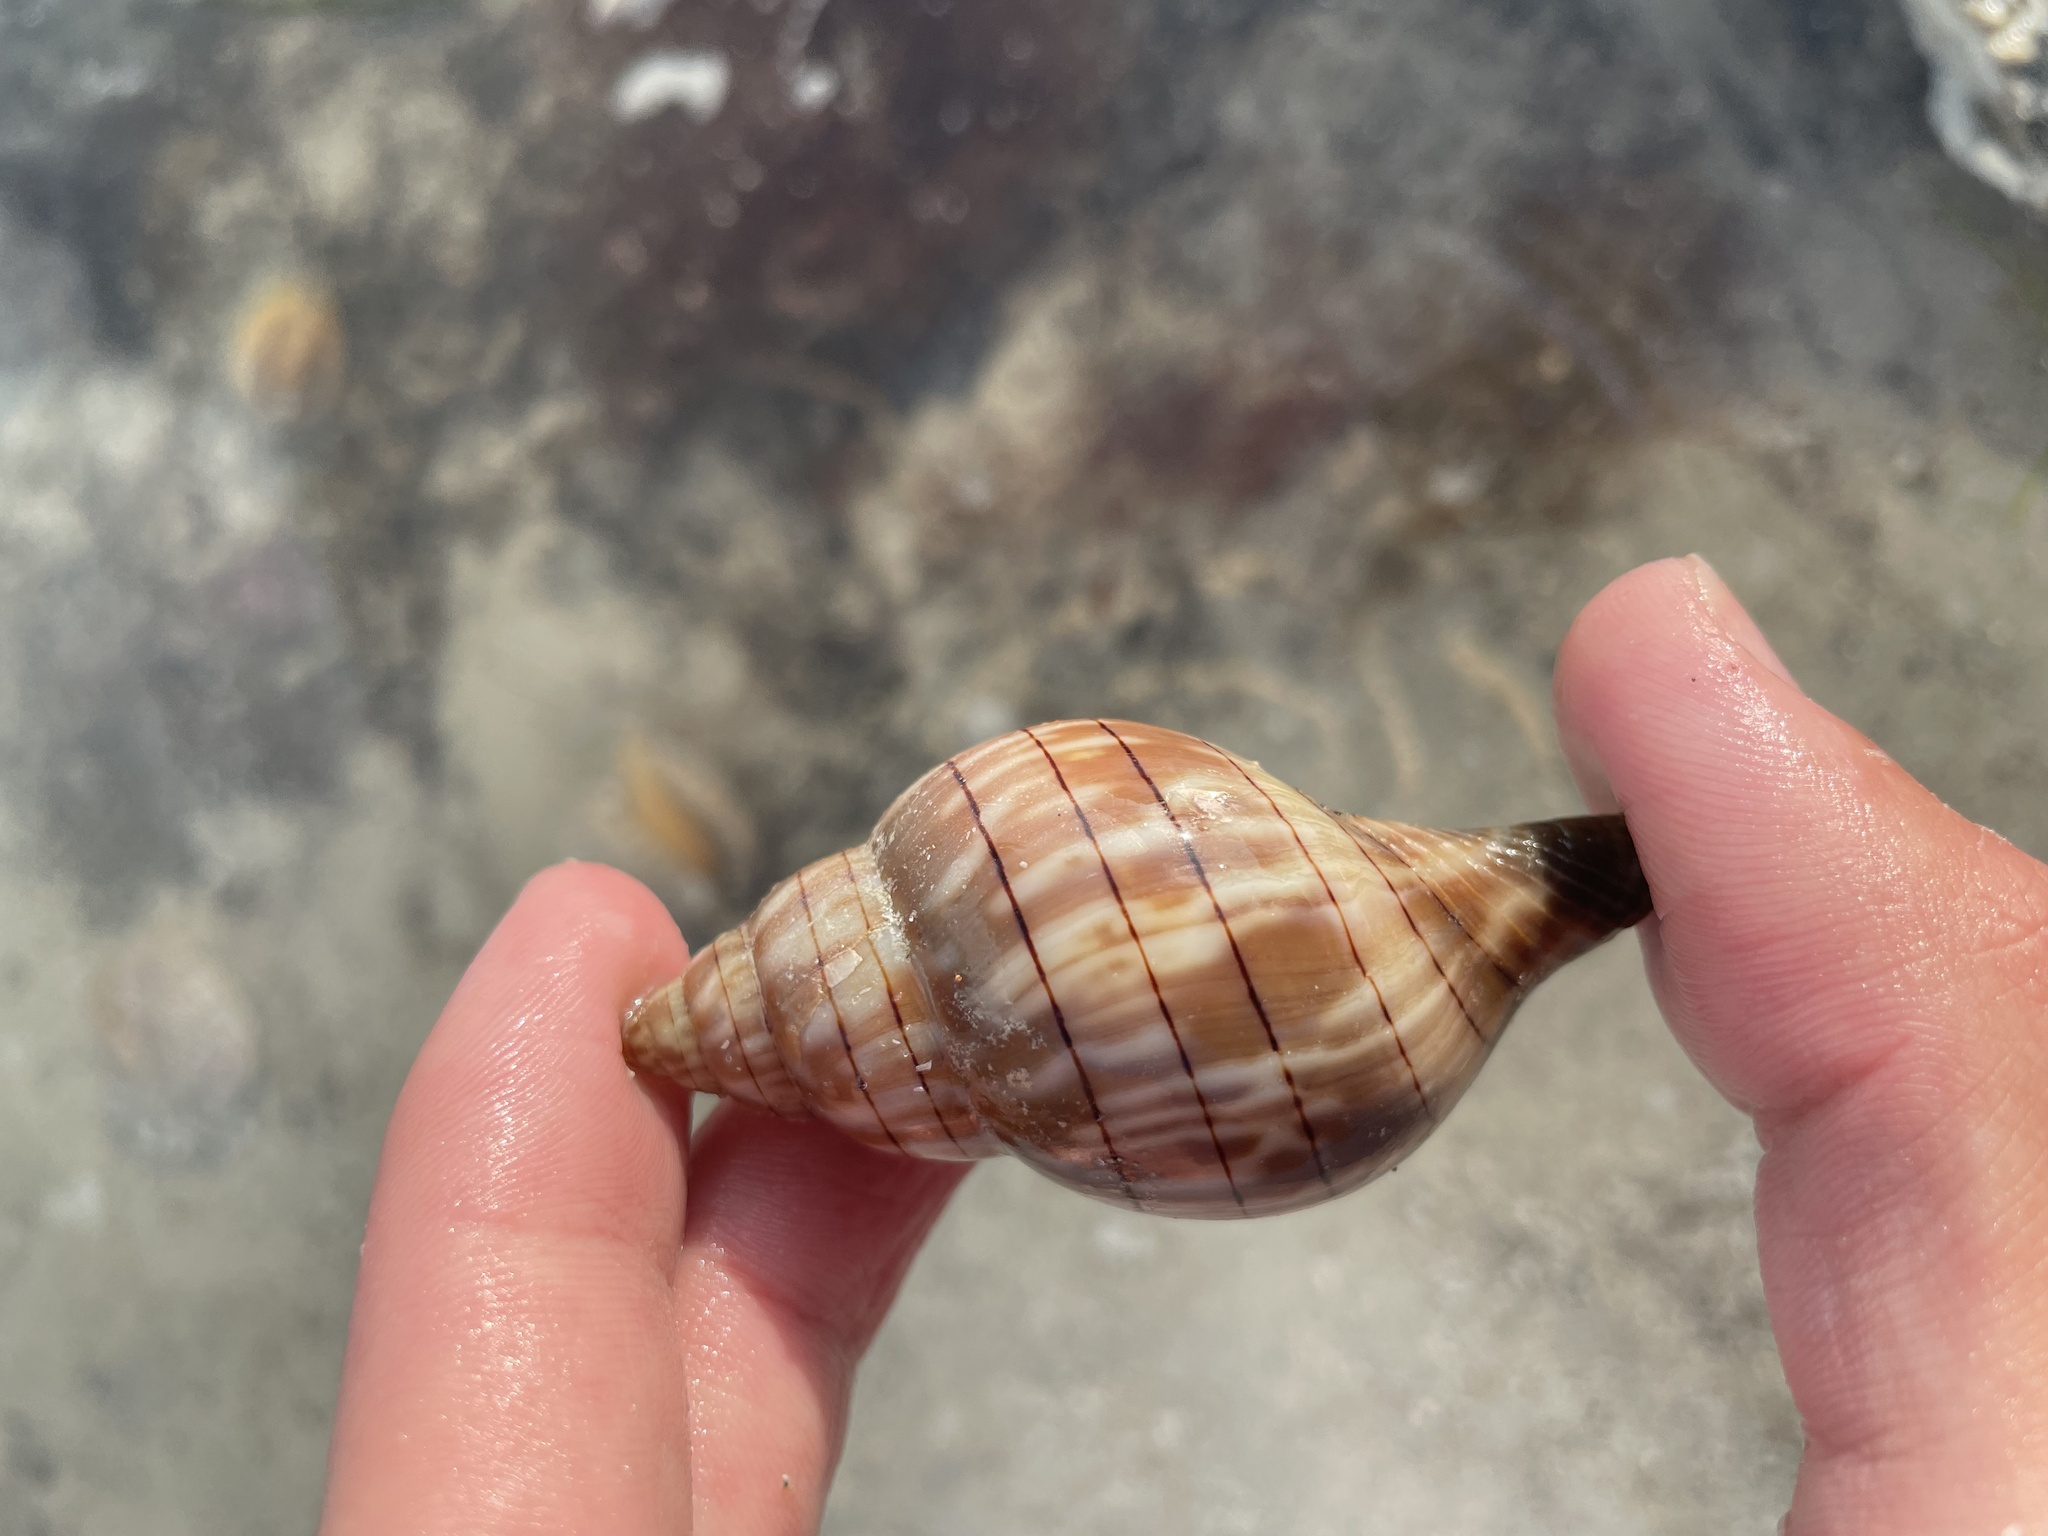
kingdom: Animalia
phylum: Mollusca
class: Gastropoda
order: Neogastropoda
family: Fasciolariidae
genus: Cinctura
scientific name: Cinctura hunteria
